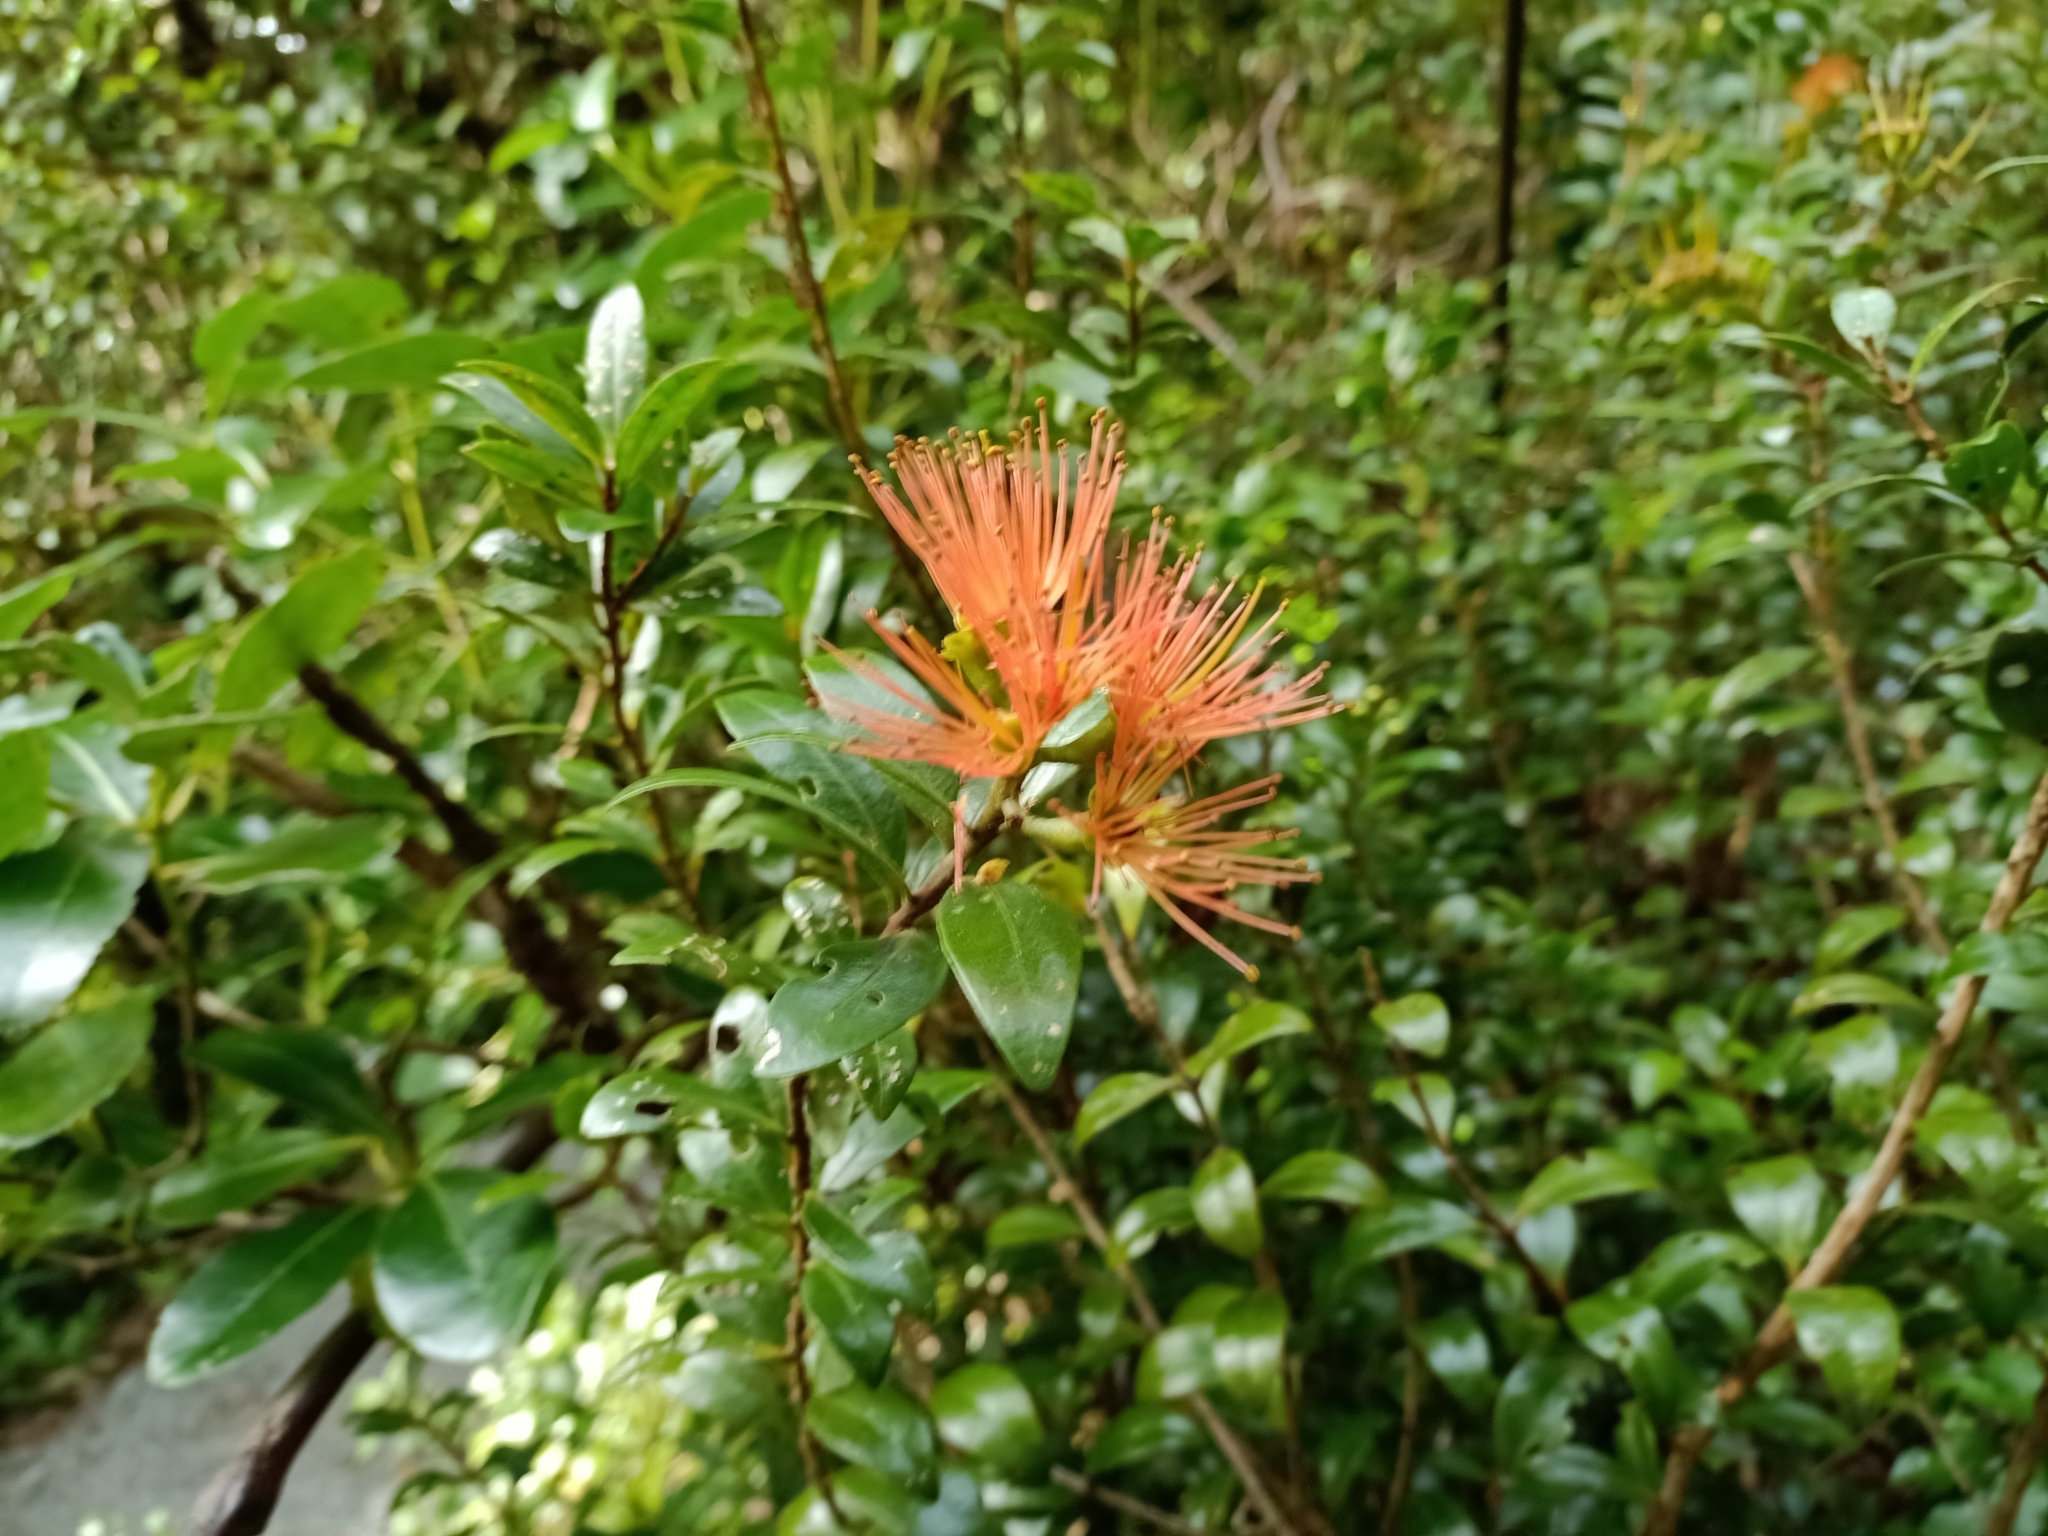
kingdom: Plantae
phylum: Tracheophyta
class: Magnoliopsida
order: Myrtales
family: Myrtaceae
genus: Metrosideros
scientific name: Metrosideros fulgens
